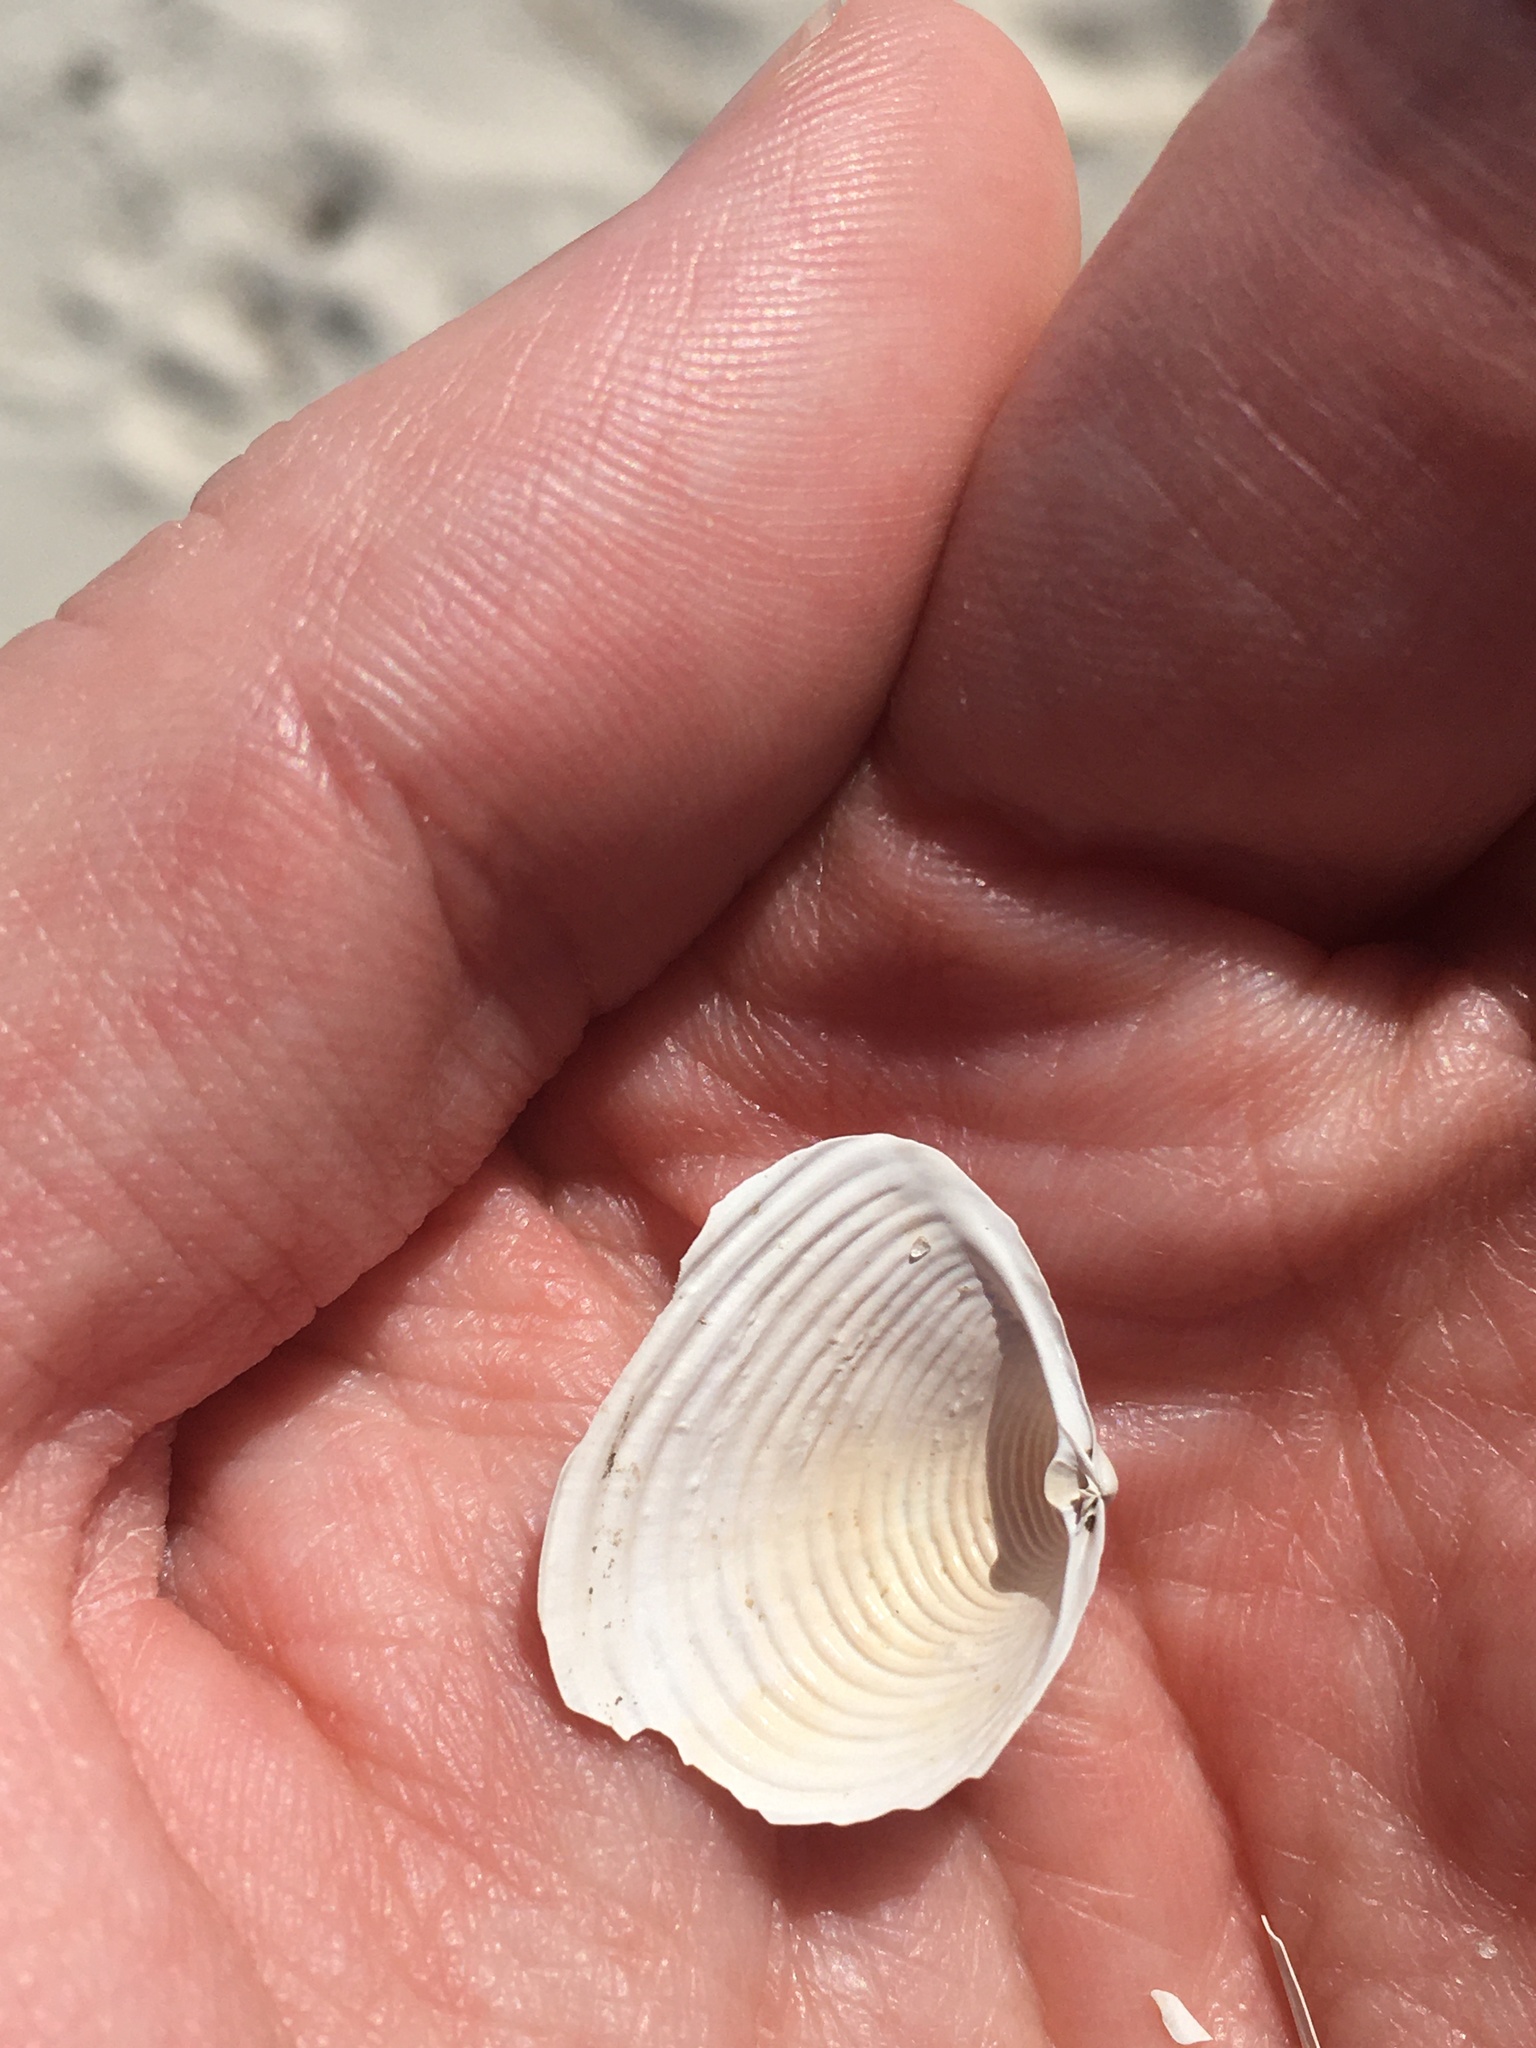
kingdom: Animalia
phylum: Mollusca
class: Bivalvia
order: Venerida
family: Anatinellidae
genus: Raeta
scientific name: Raeta plicatella
